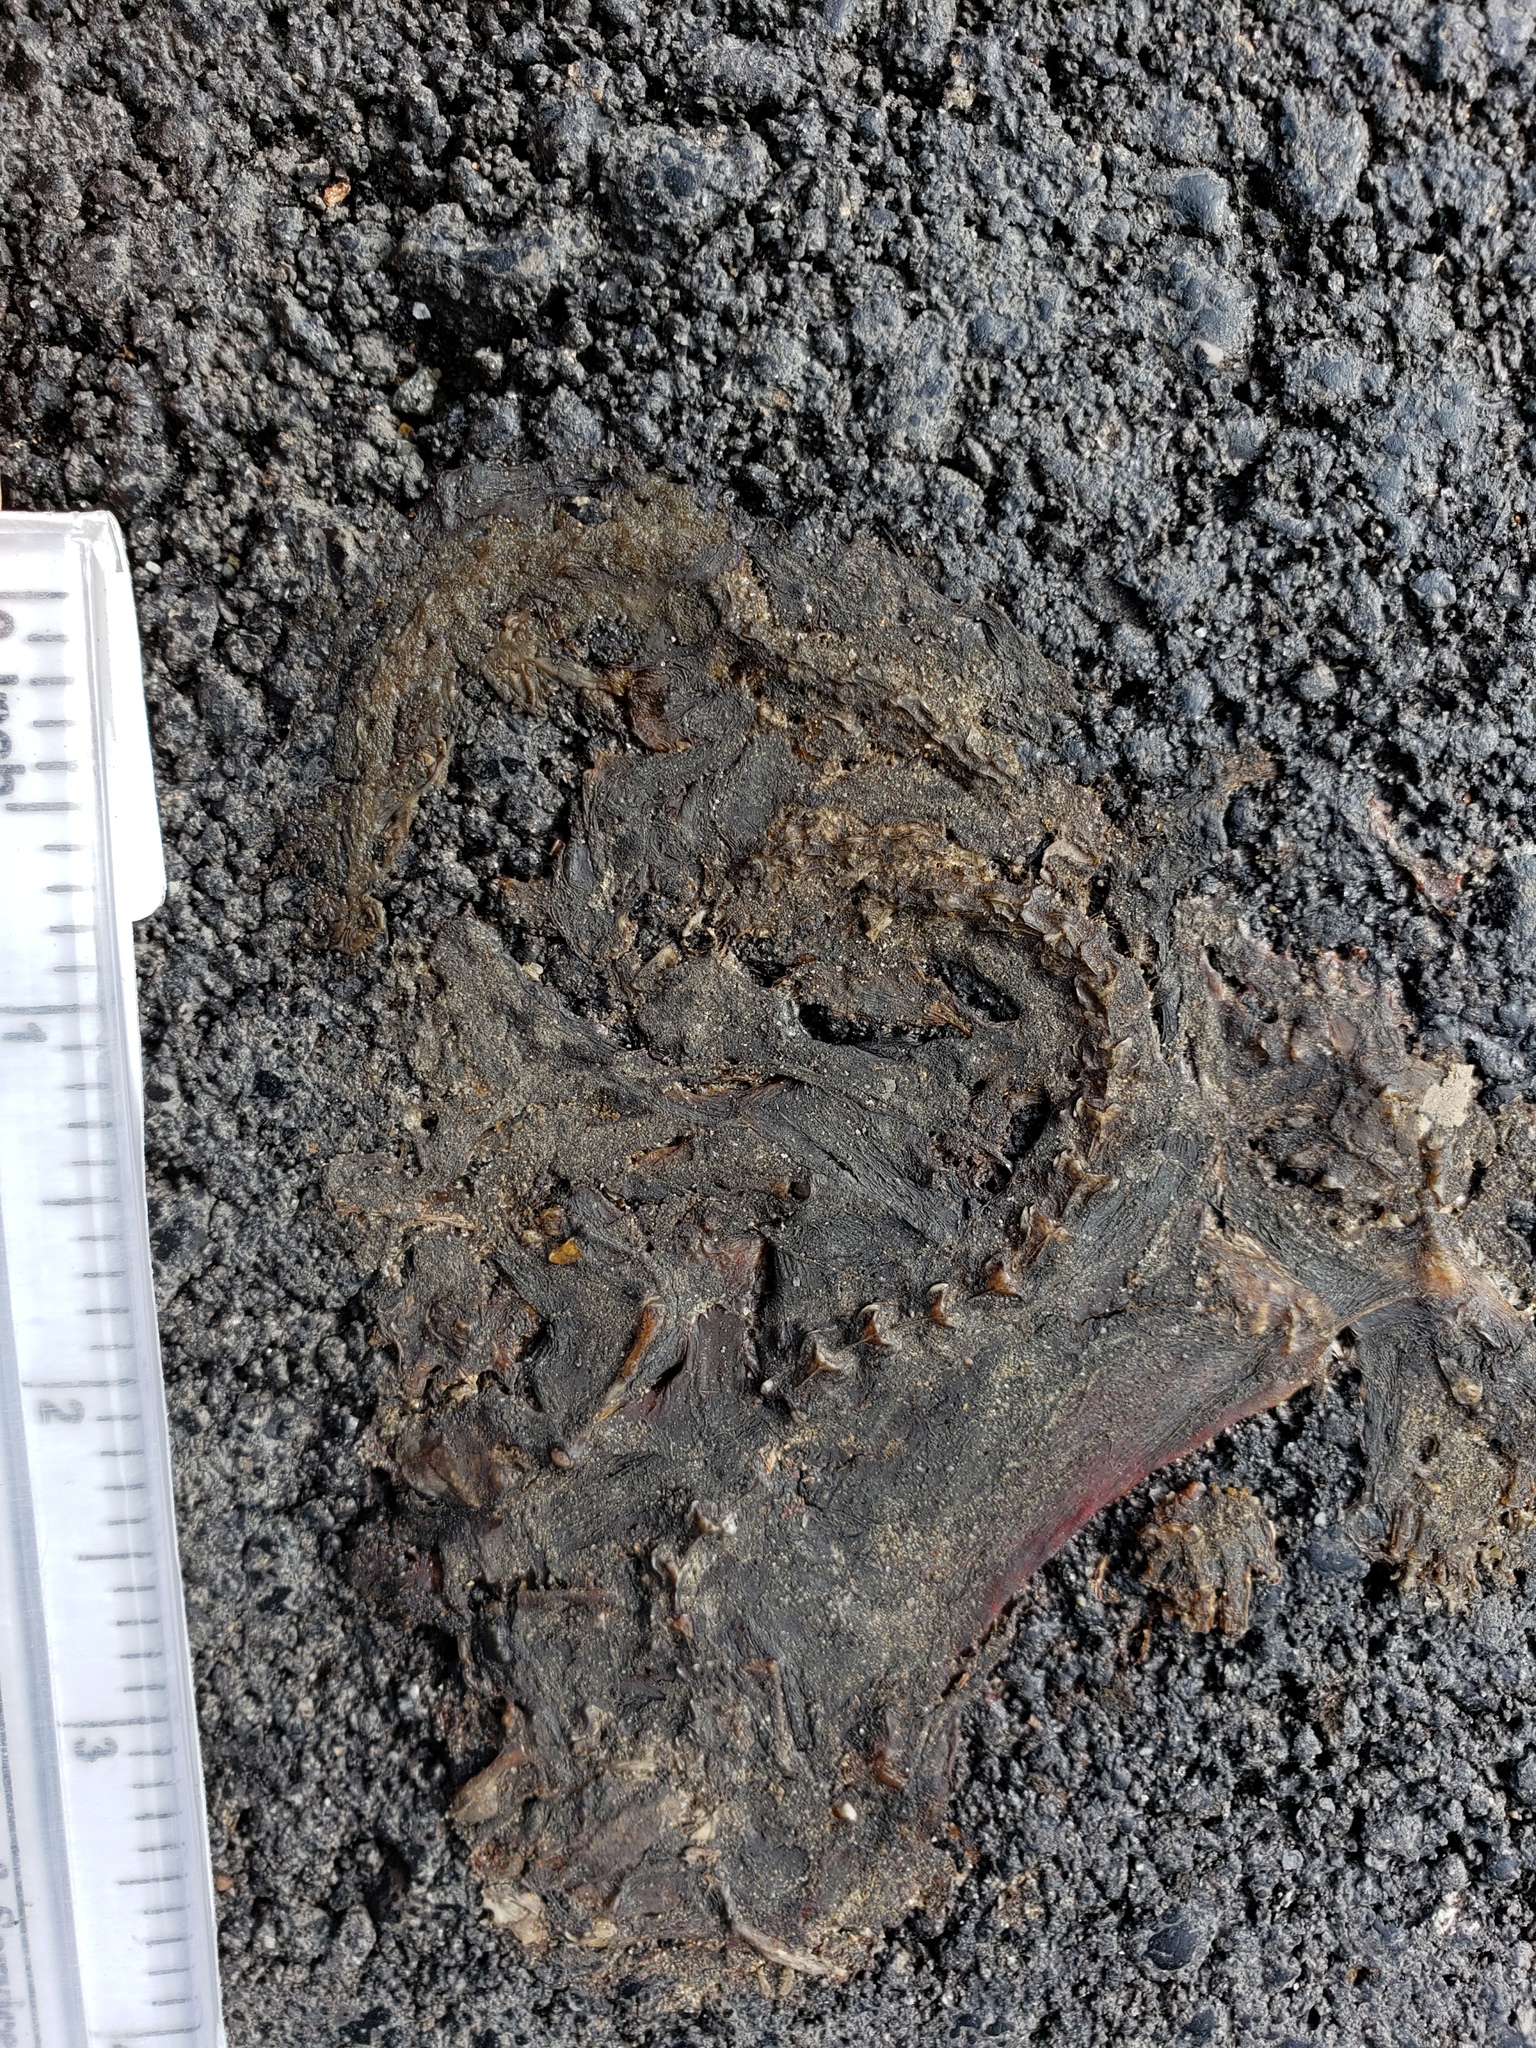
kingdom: Animalia
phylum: Chordata
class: Amphibia
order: Caudata
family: Salamandridae
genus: Taricha
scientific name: Taricha
